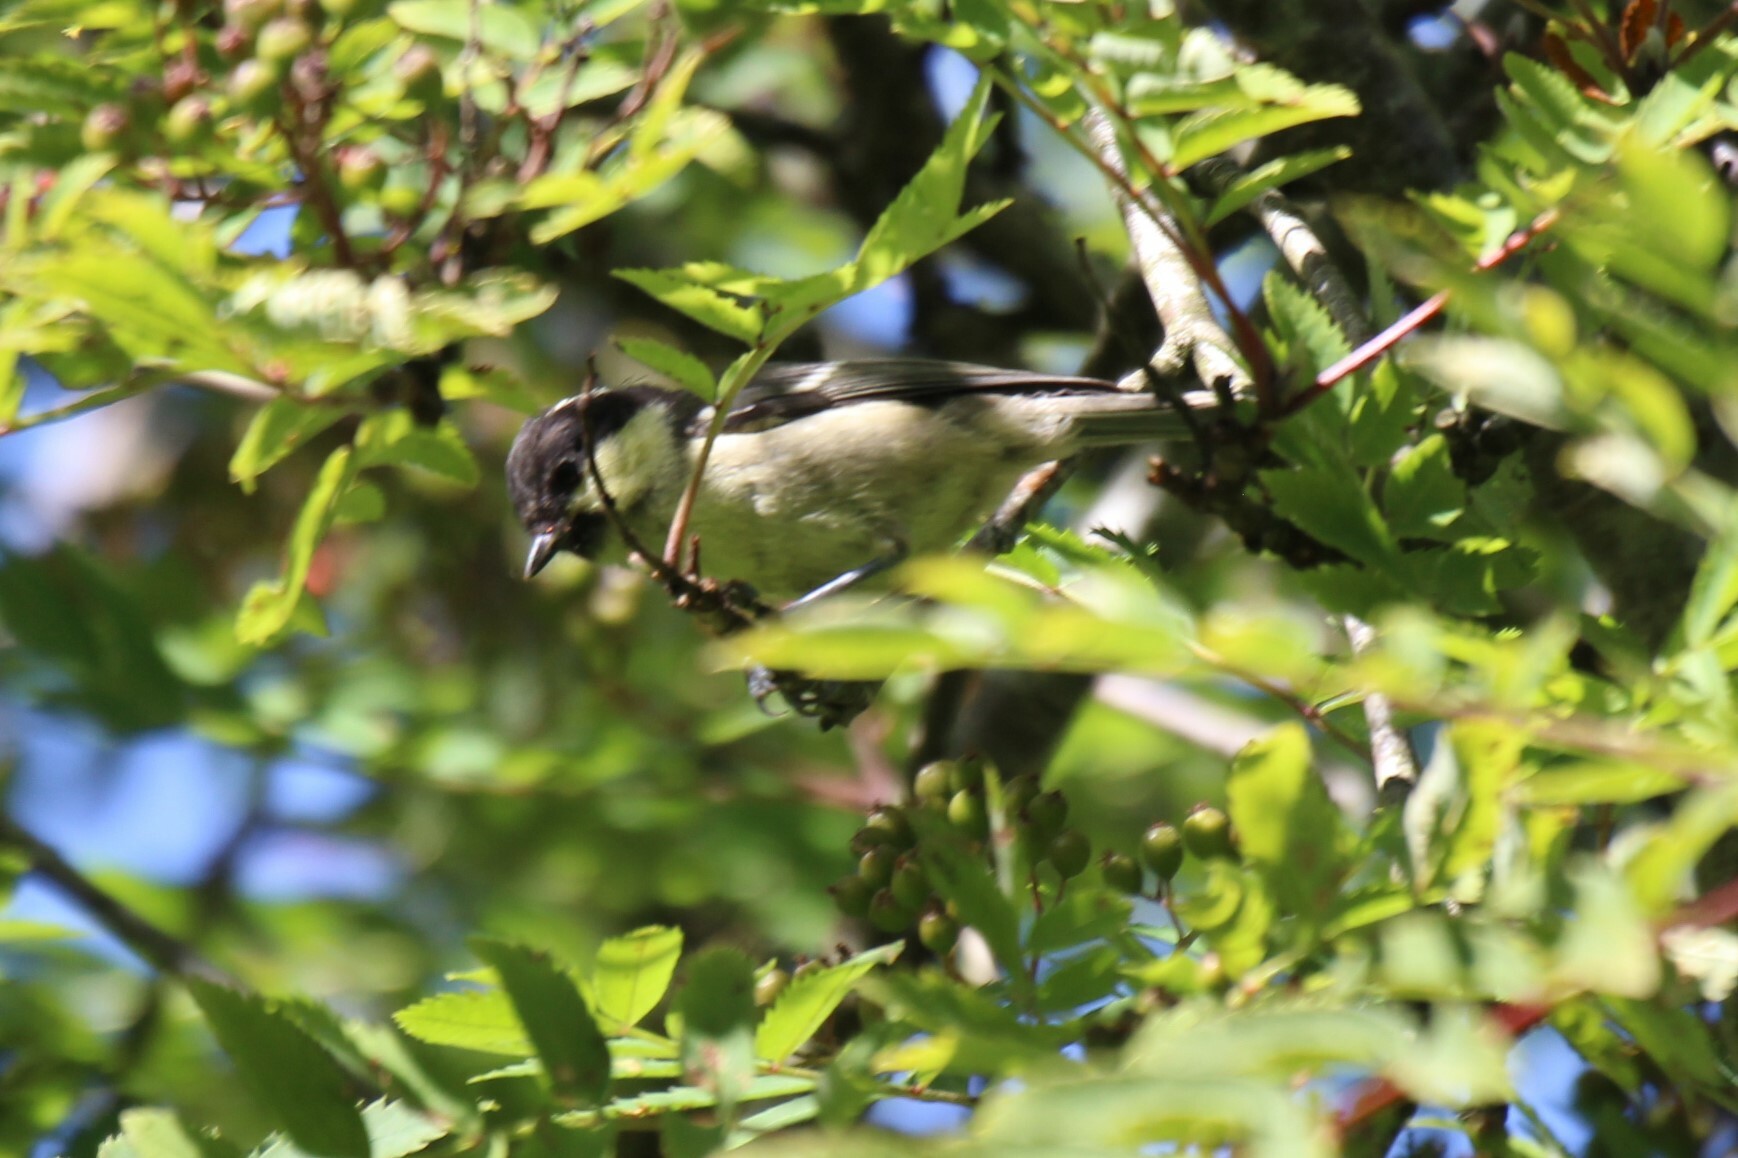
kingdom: Animalia
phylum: Chordata
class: Aves
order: Passeriformes
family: Paridae
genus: Periparus
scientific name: Periparus ater
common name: Coal tit
